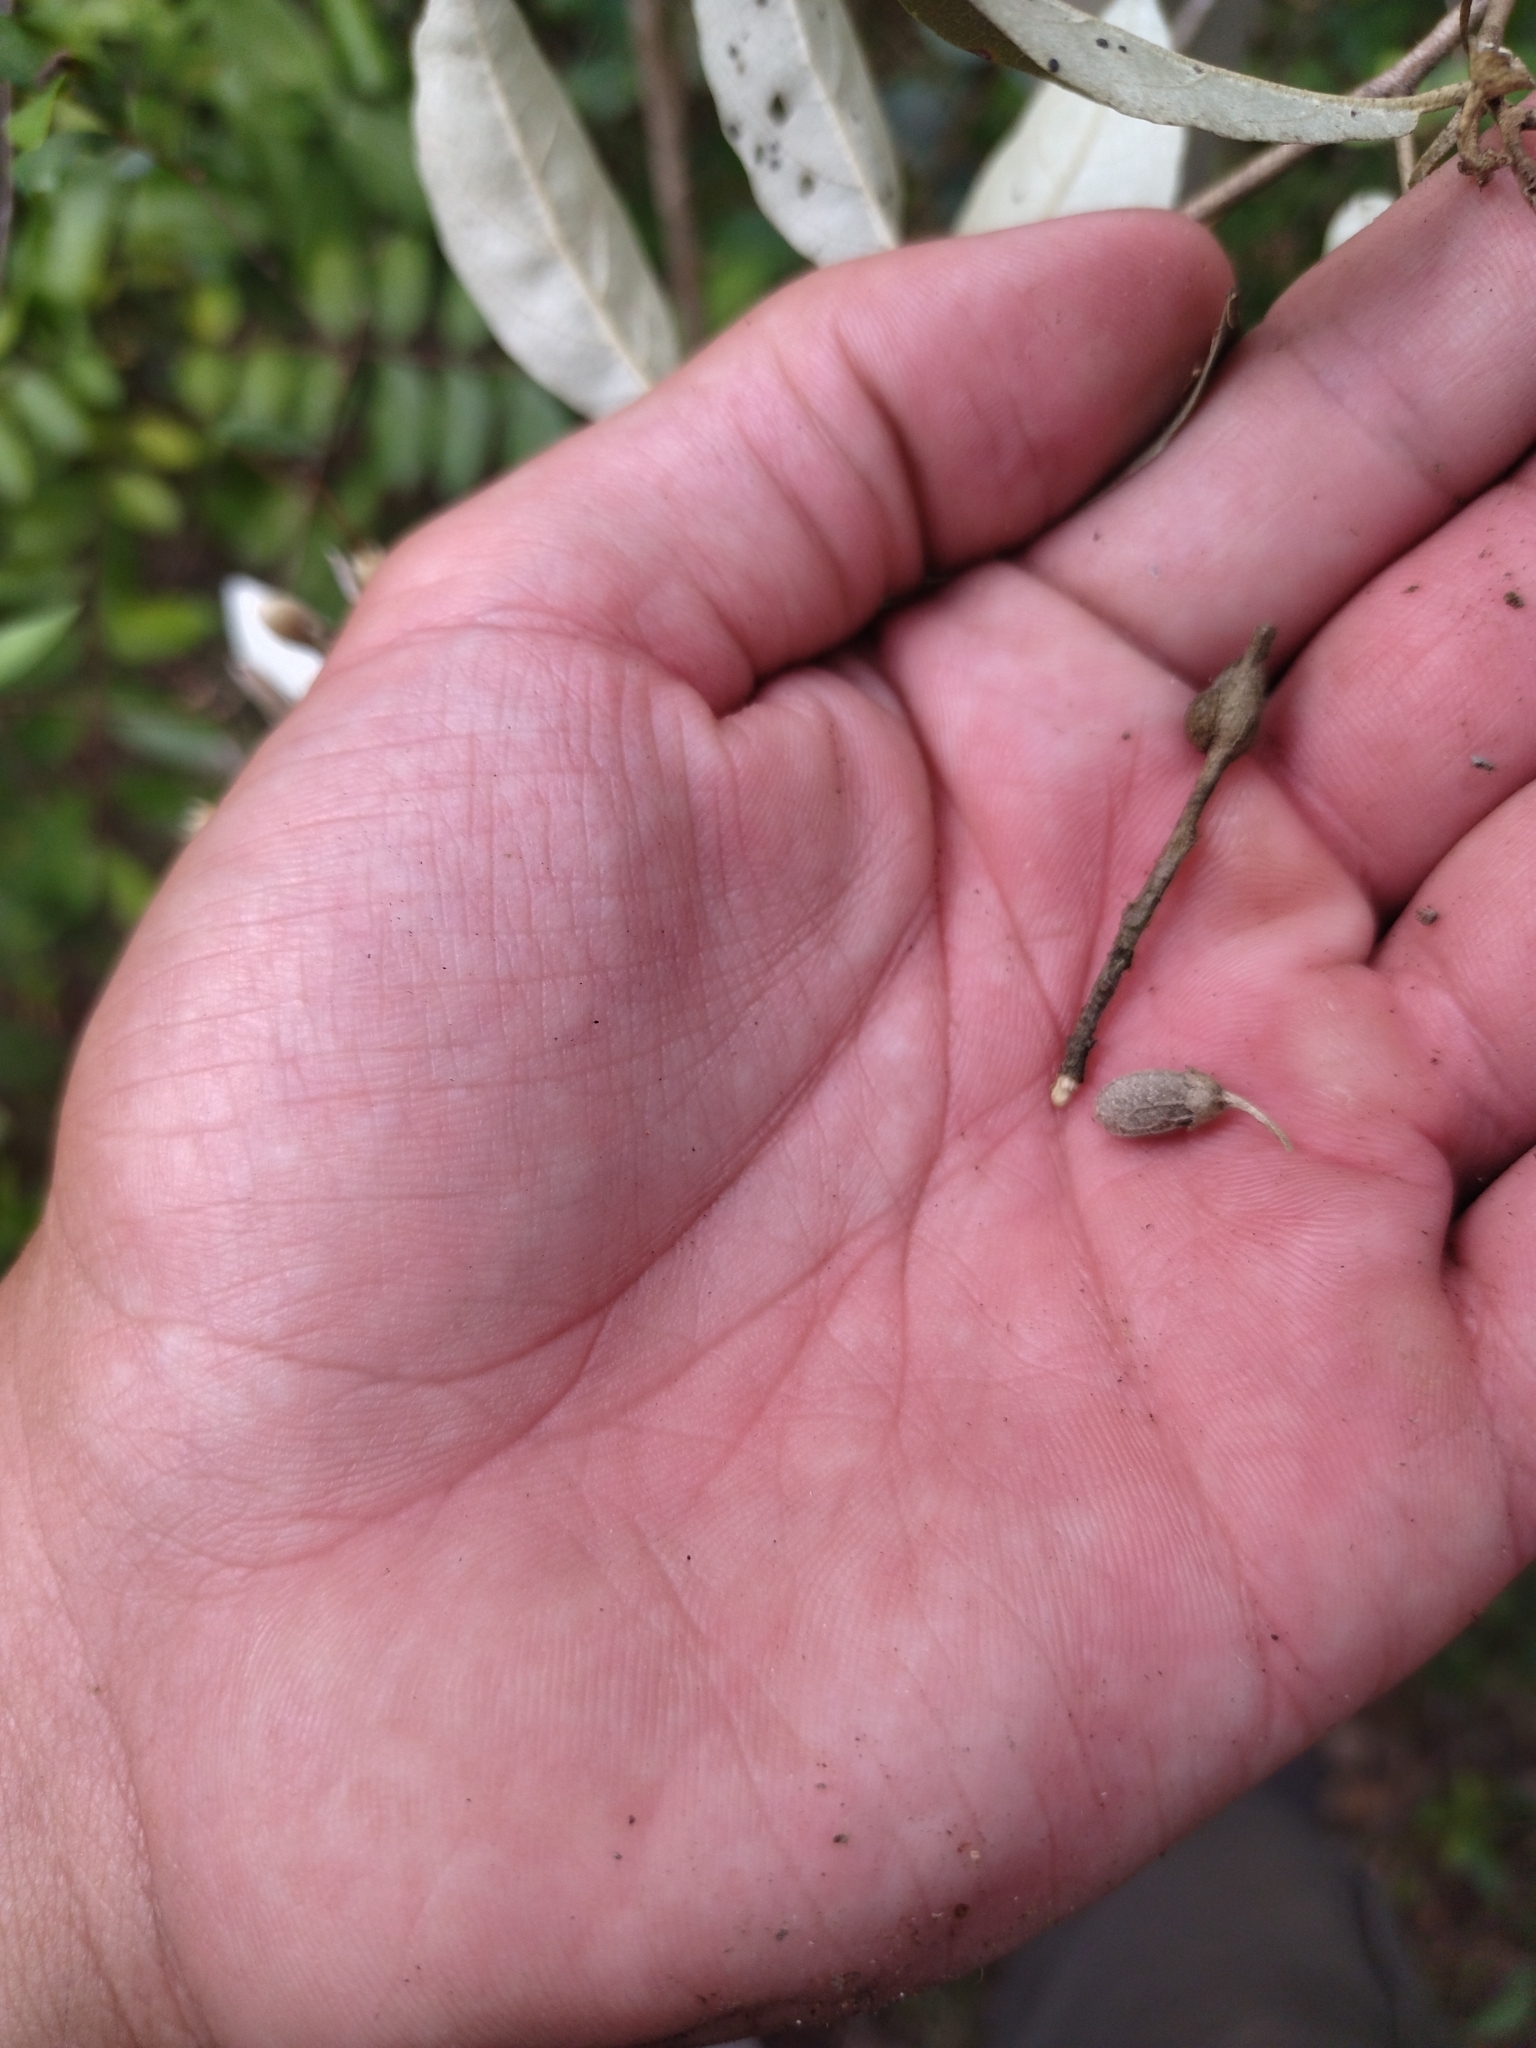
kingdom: Plantae
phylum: Tracheophyta
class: Magnoliopsida
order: Ericales
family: Styracaceae
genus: Styrax
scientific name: Styrax leprosus
